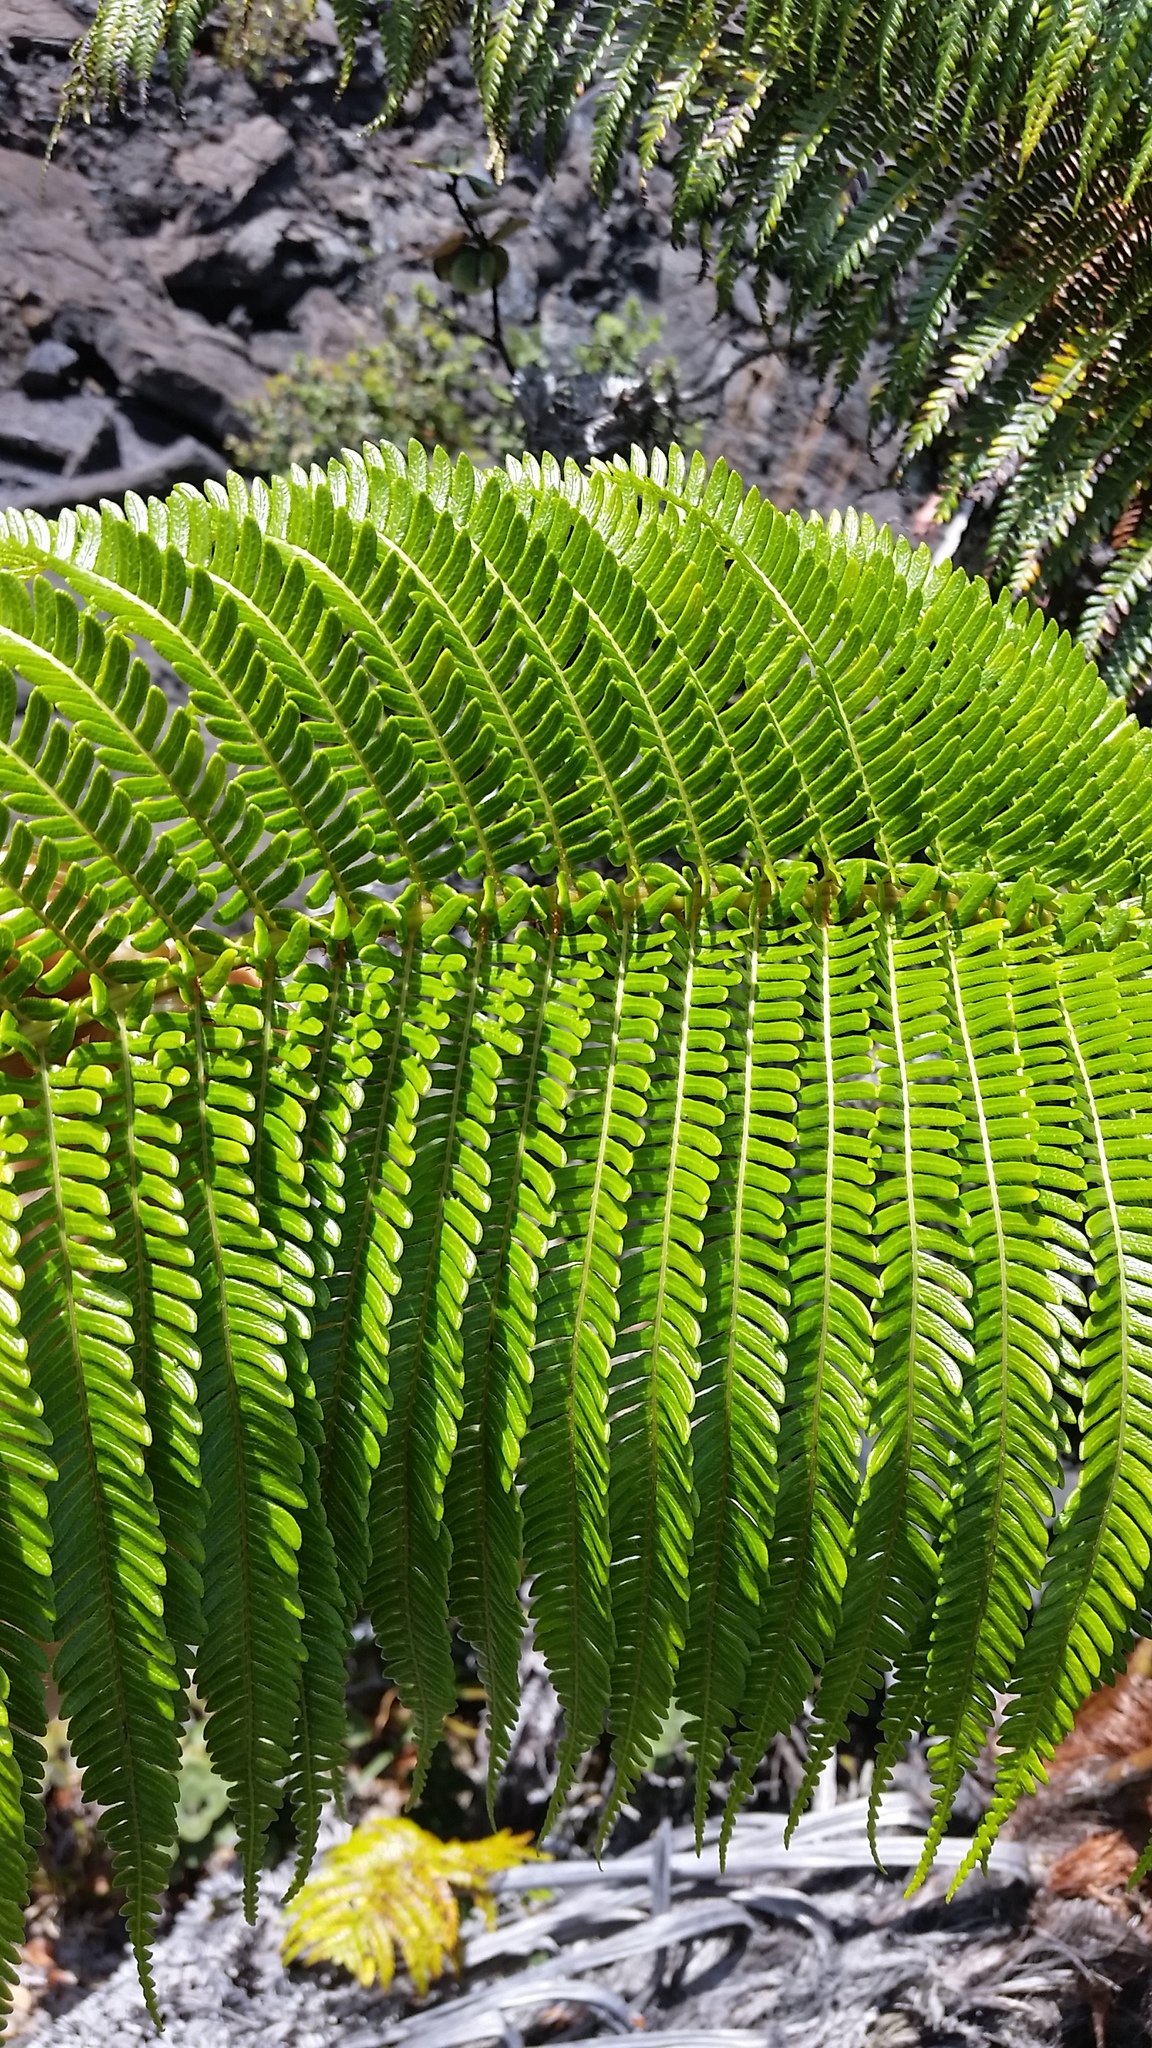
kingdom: Plantae
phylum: Tracheophyta
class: Polypodiopsida
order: Polypodiales
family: Blechnaceae
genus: Sadleria
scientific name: Sadleria cyatheoides
